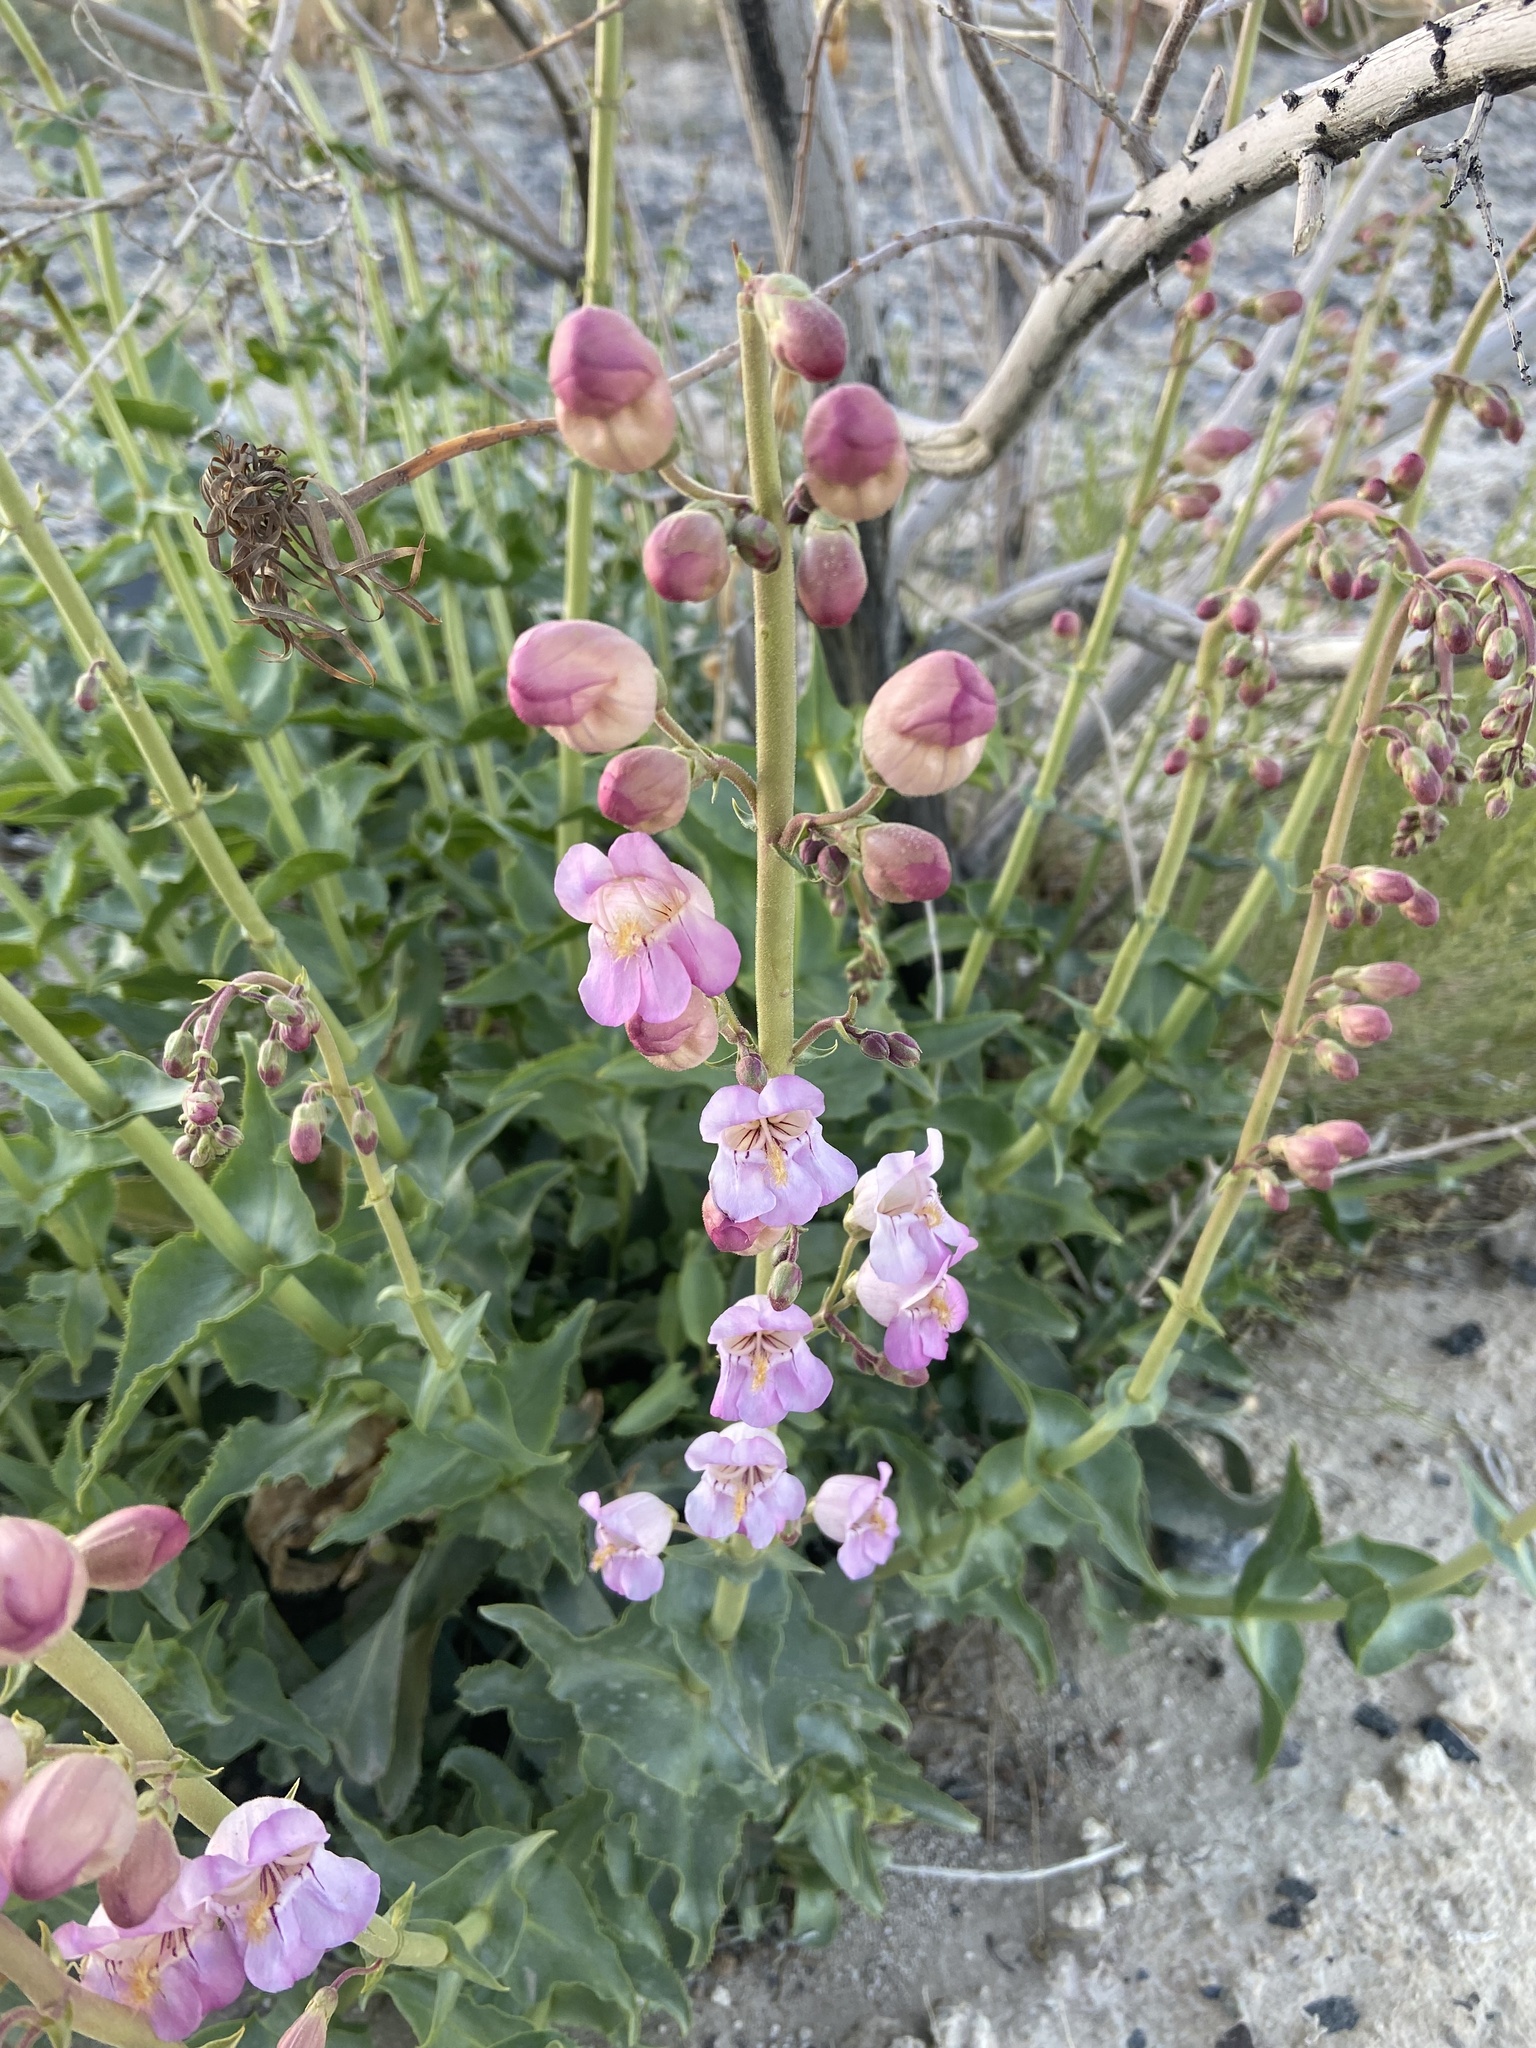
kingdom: Plantae
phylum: Tracheophyta
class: Magnoliopsida
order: Lamiales
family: Plantaginaceae
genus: Penstemon
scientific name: Penstemon palmeri
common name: Palmer penstemon
